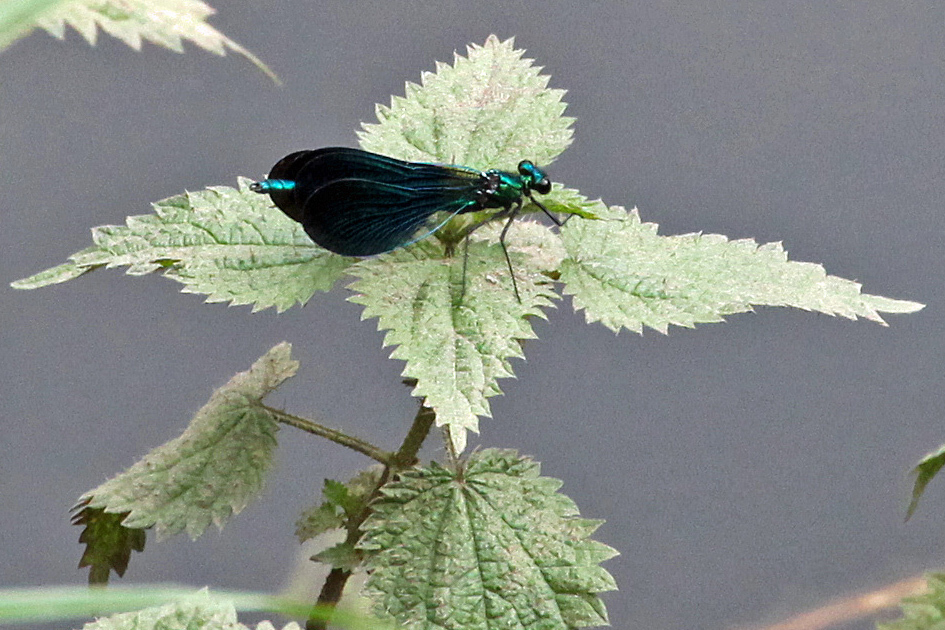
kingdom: Animalia
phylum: Arthropoda
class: Insecta
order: Odonata
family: Calopterygidae
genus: Calopteryx
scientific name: Calopteryx virgo
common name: Beautiful demoiselle
